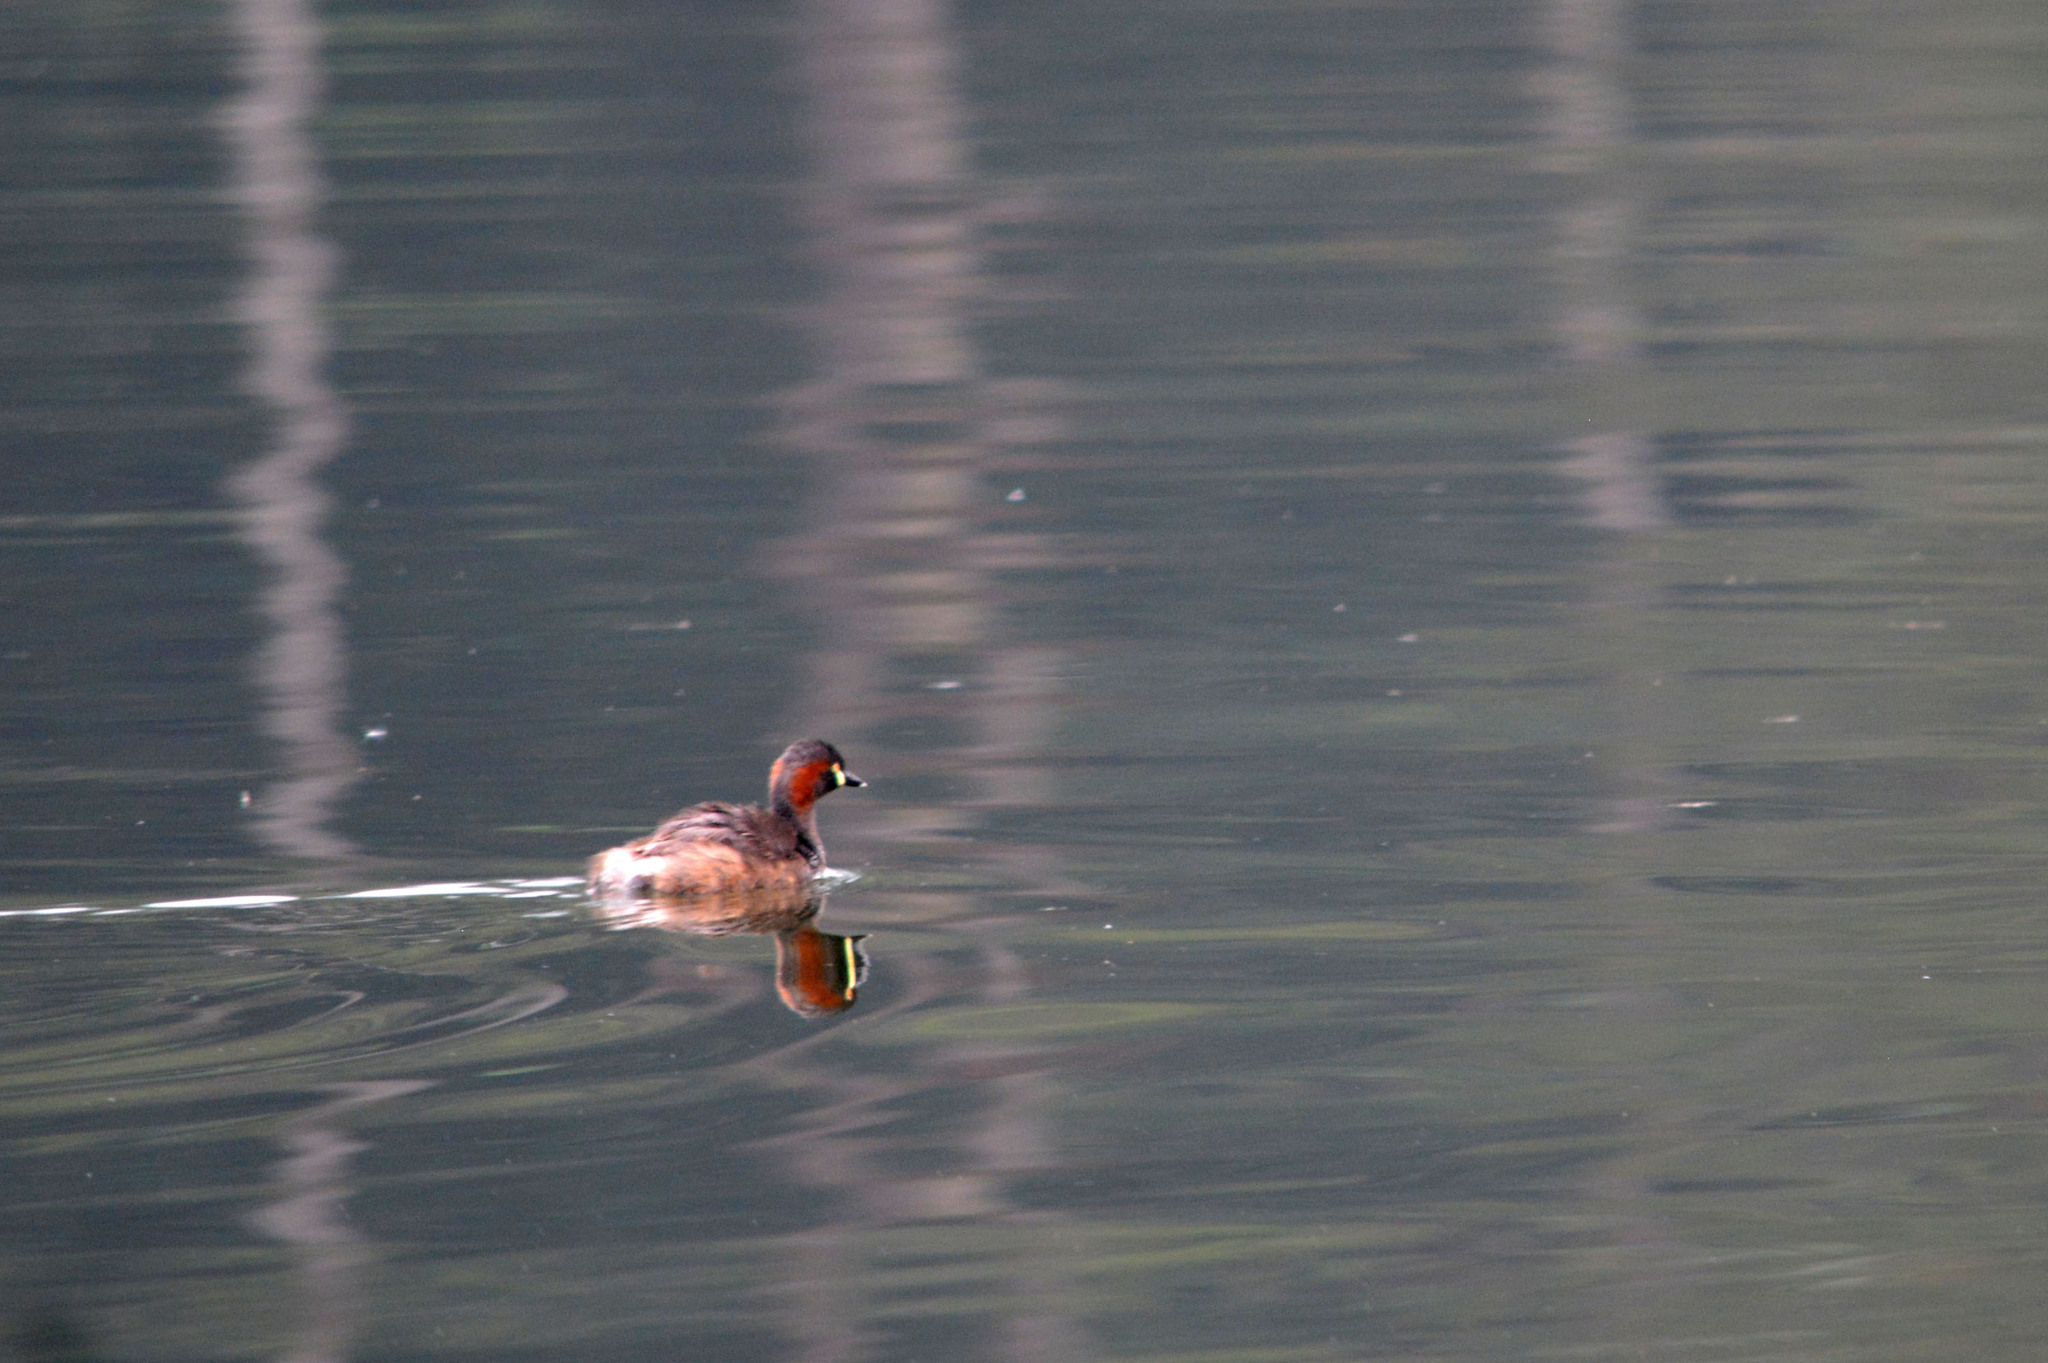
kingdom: Animalia
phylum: Chordata
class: Aves
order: Podicipediformes
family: Podicipedidae
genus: Tachybaptus
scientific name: Tachybaptus novaehollandiae
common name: Australasian grebe
